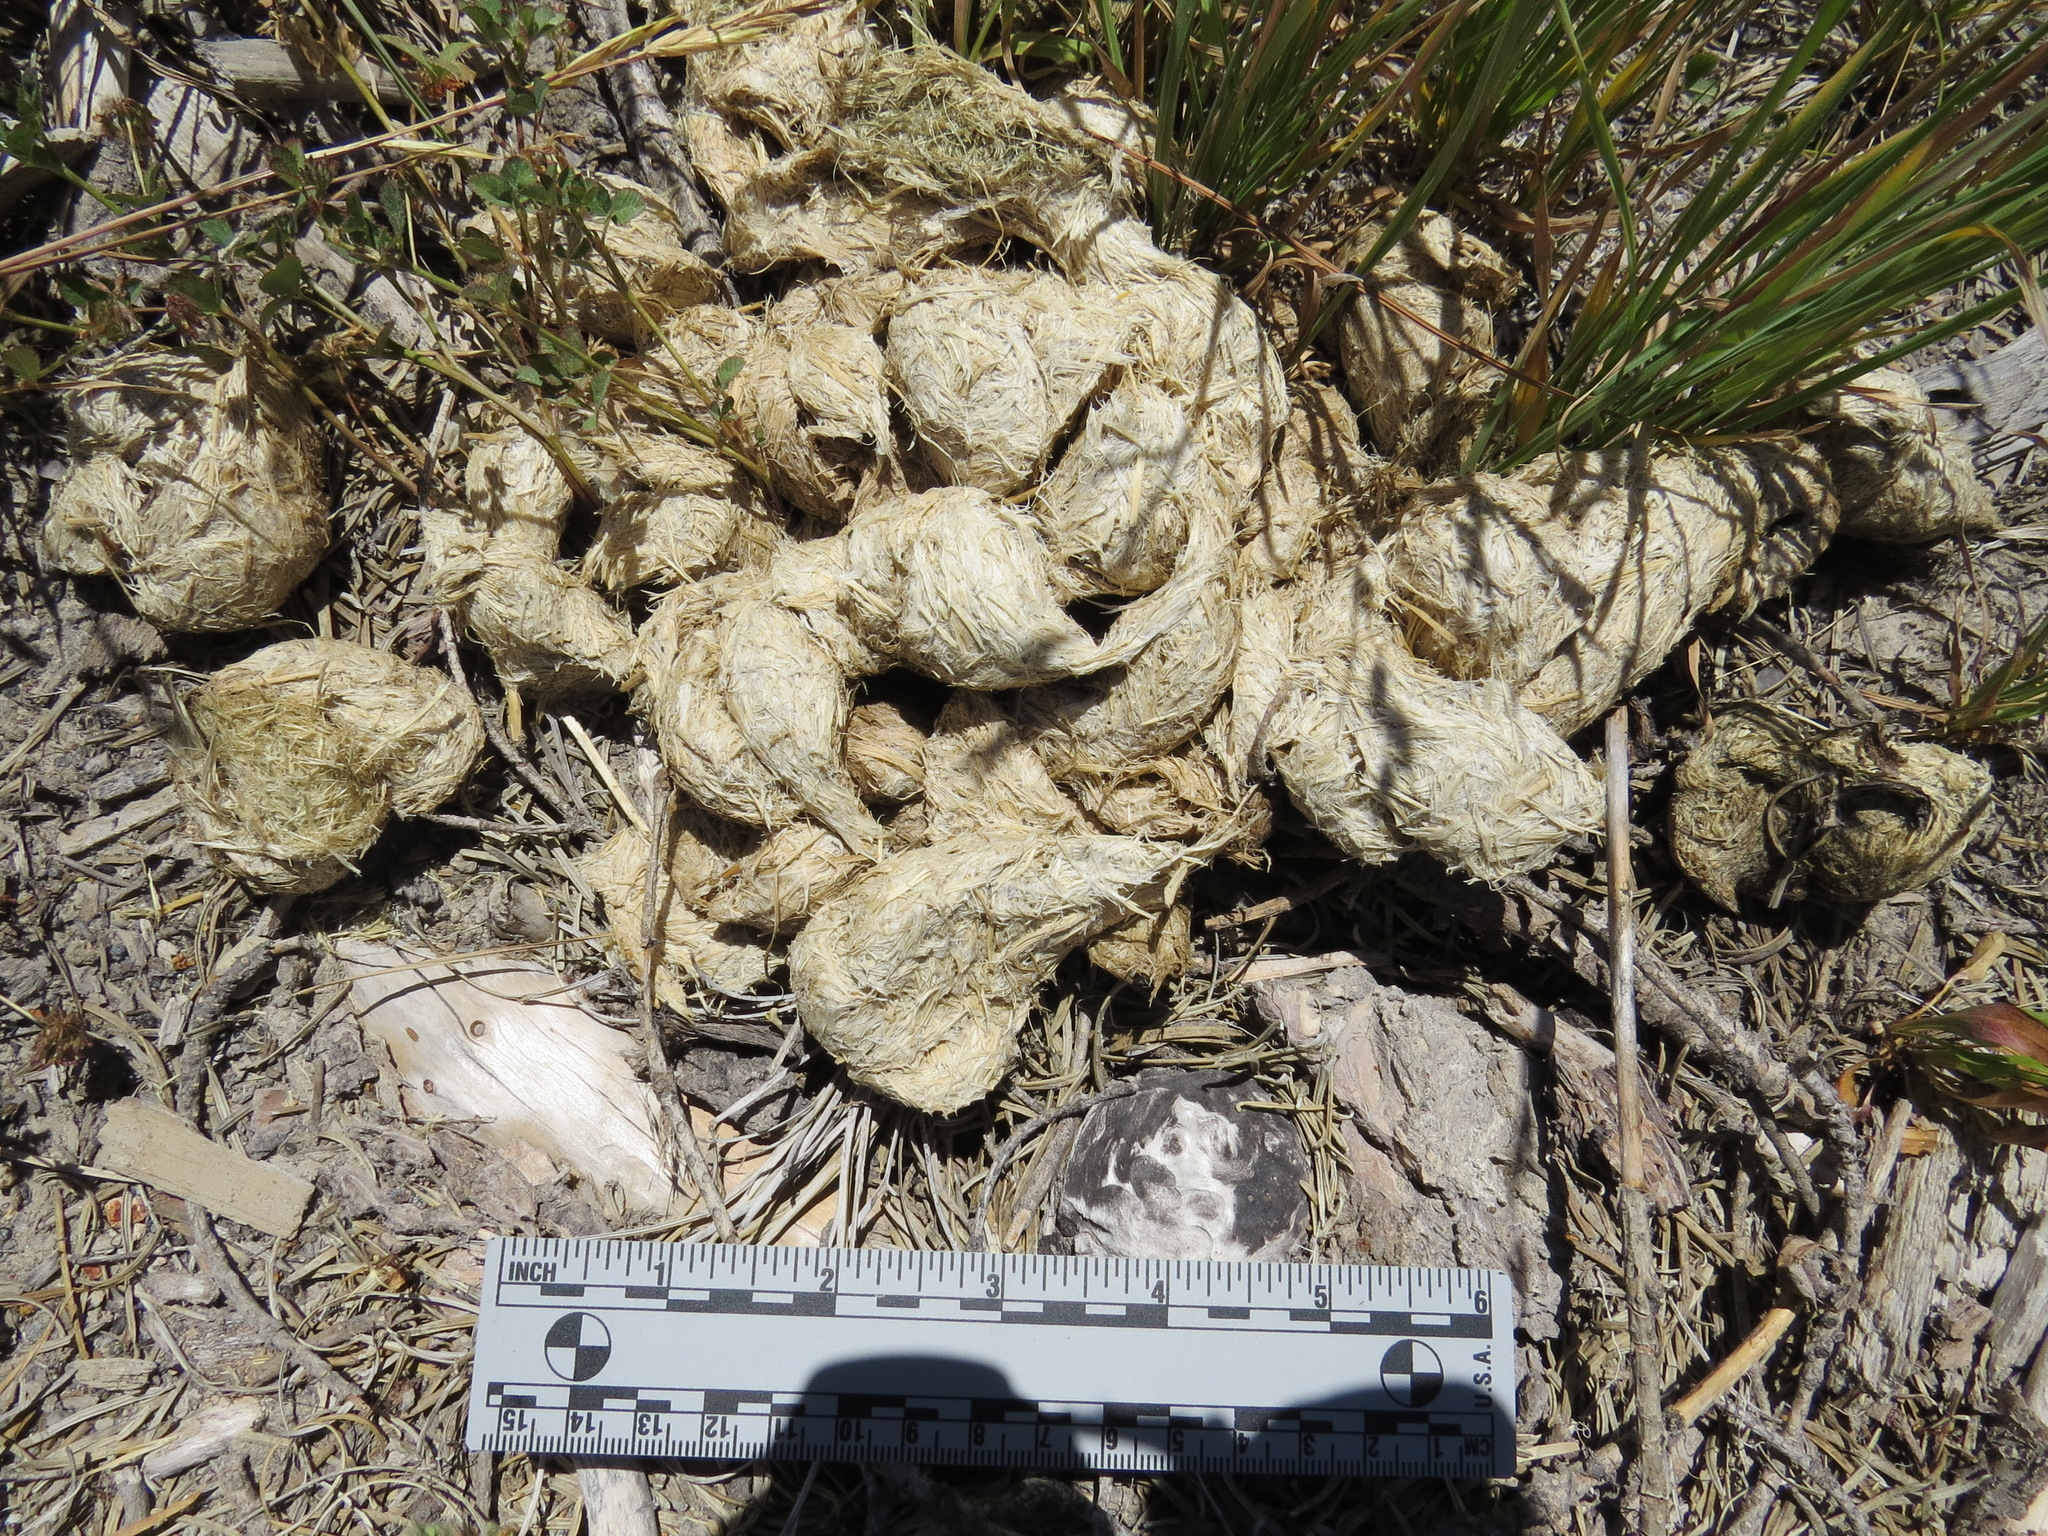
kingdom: Animalia
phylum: Chordata
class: Mammalia
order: Carnivora
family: Ursidae
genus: Ursus
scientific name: Ursus americanus
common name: American black bear
